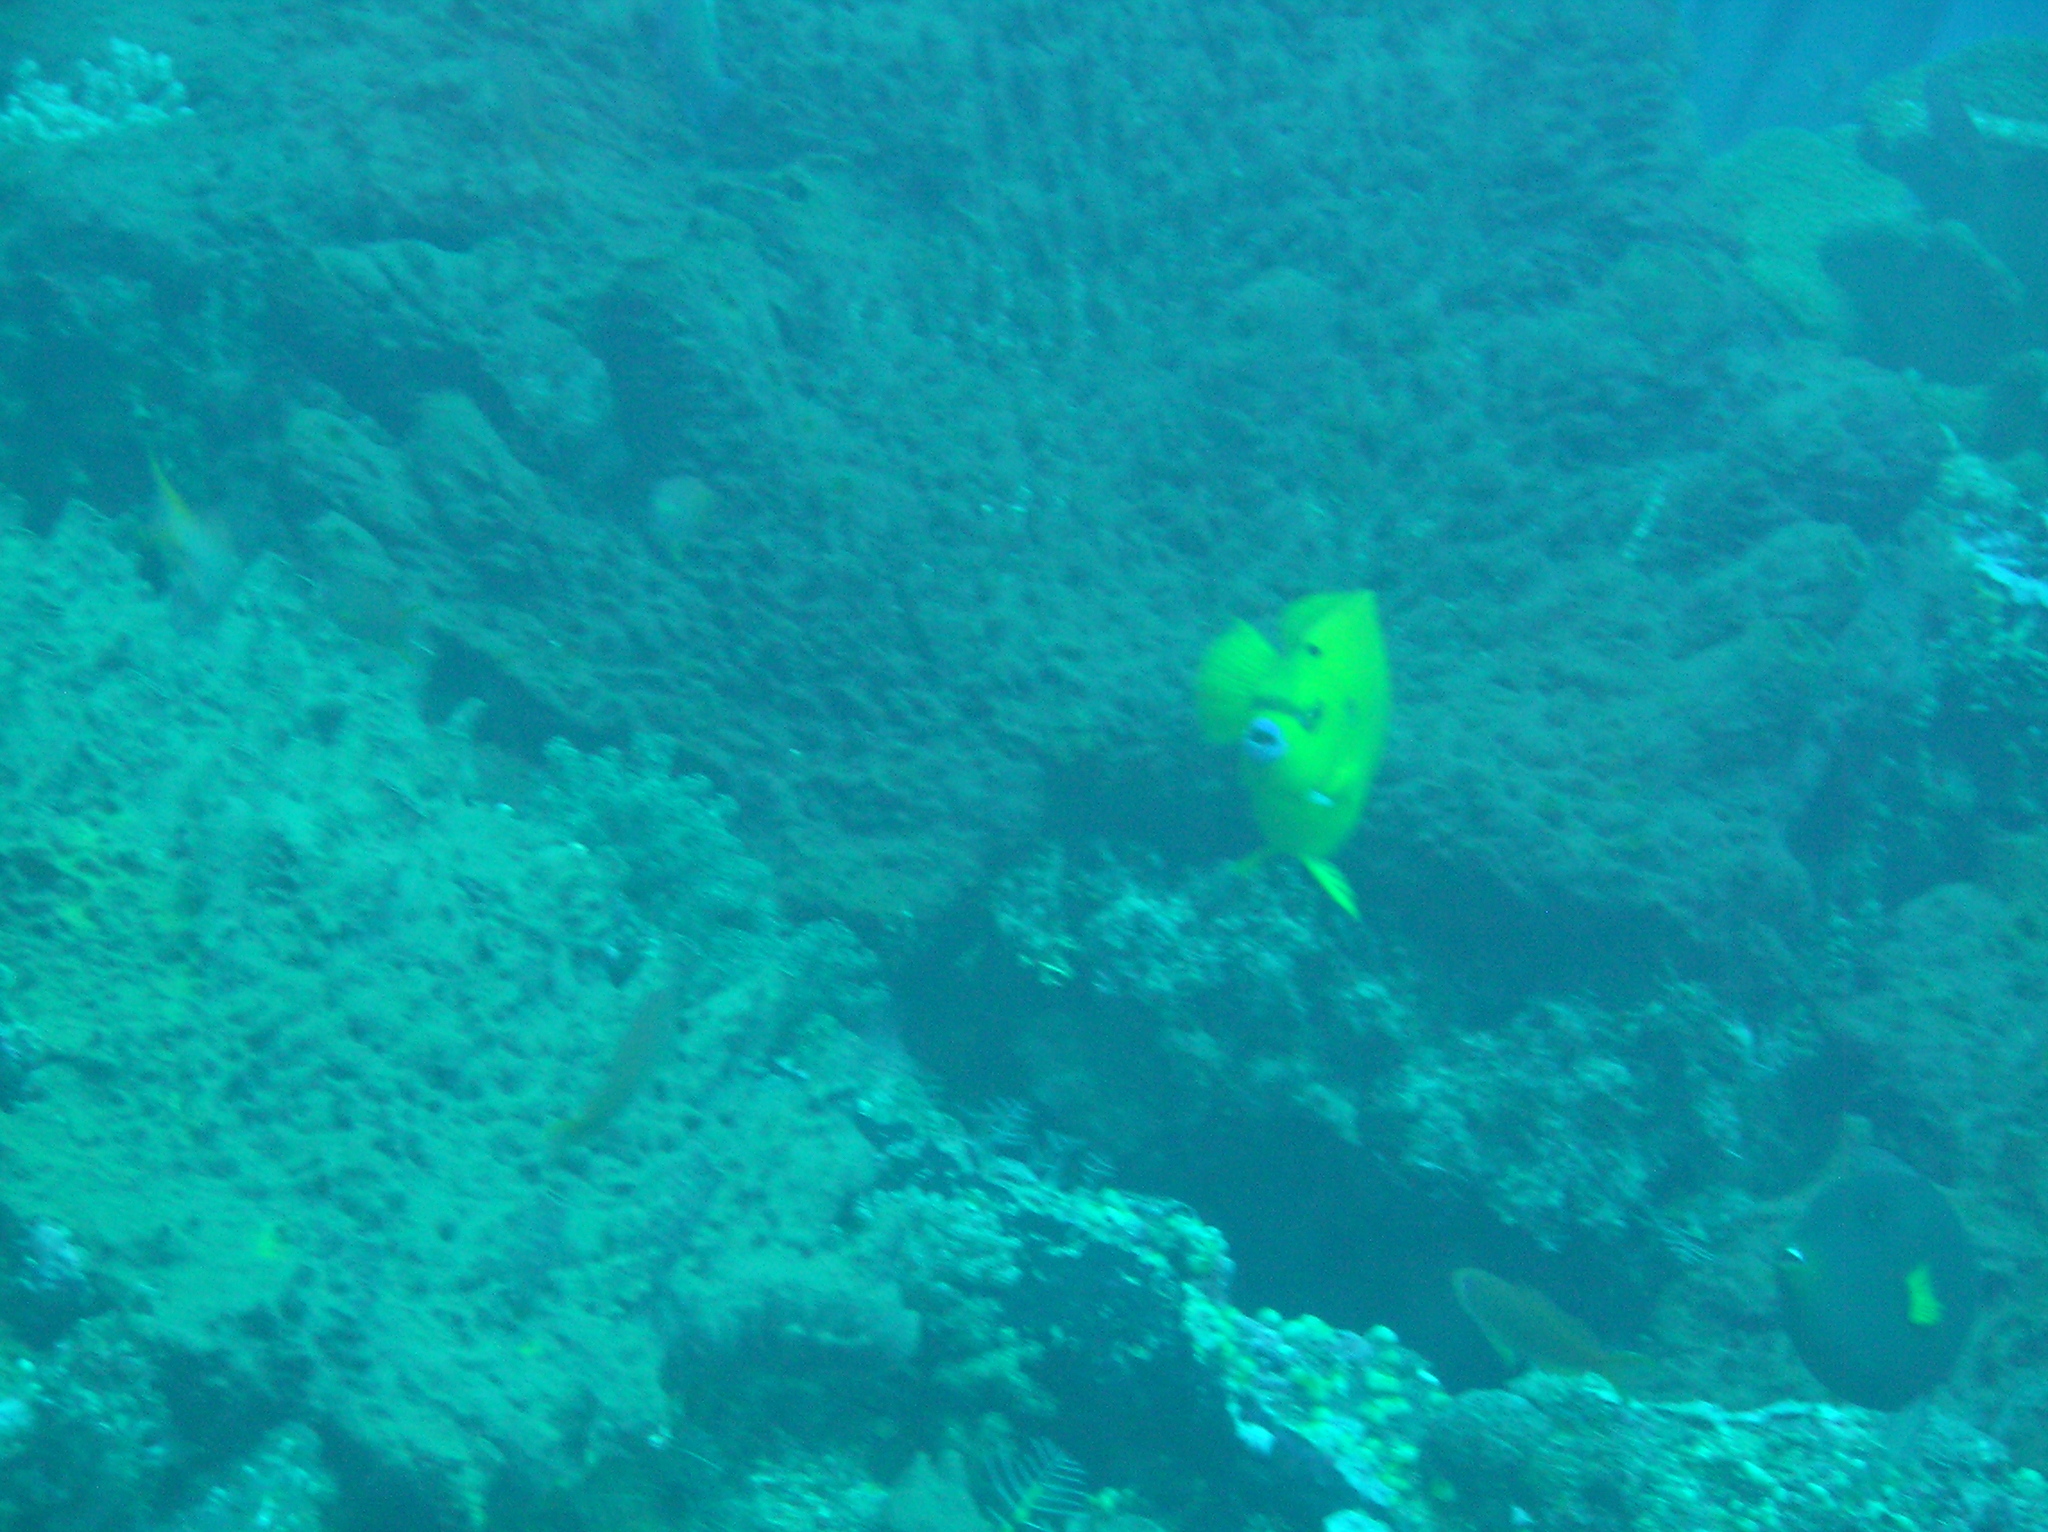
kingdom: Animalia
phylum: Chordata
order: Perciformes
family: Pomacanthidae
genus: Apolemichthys
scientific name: Apolemichthys trimaculatus
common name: Threespot angelfish
